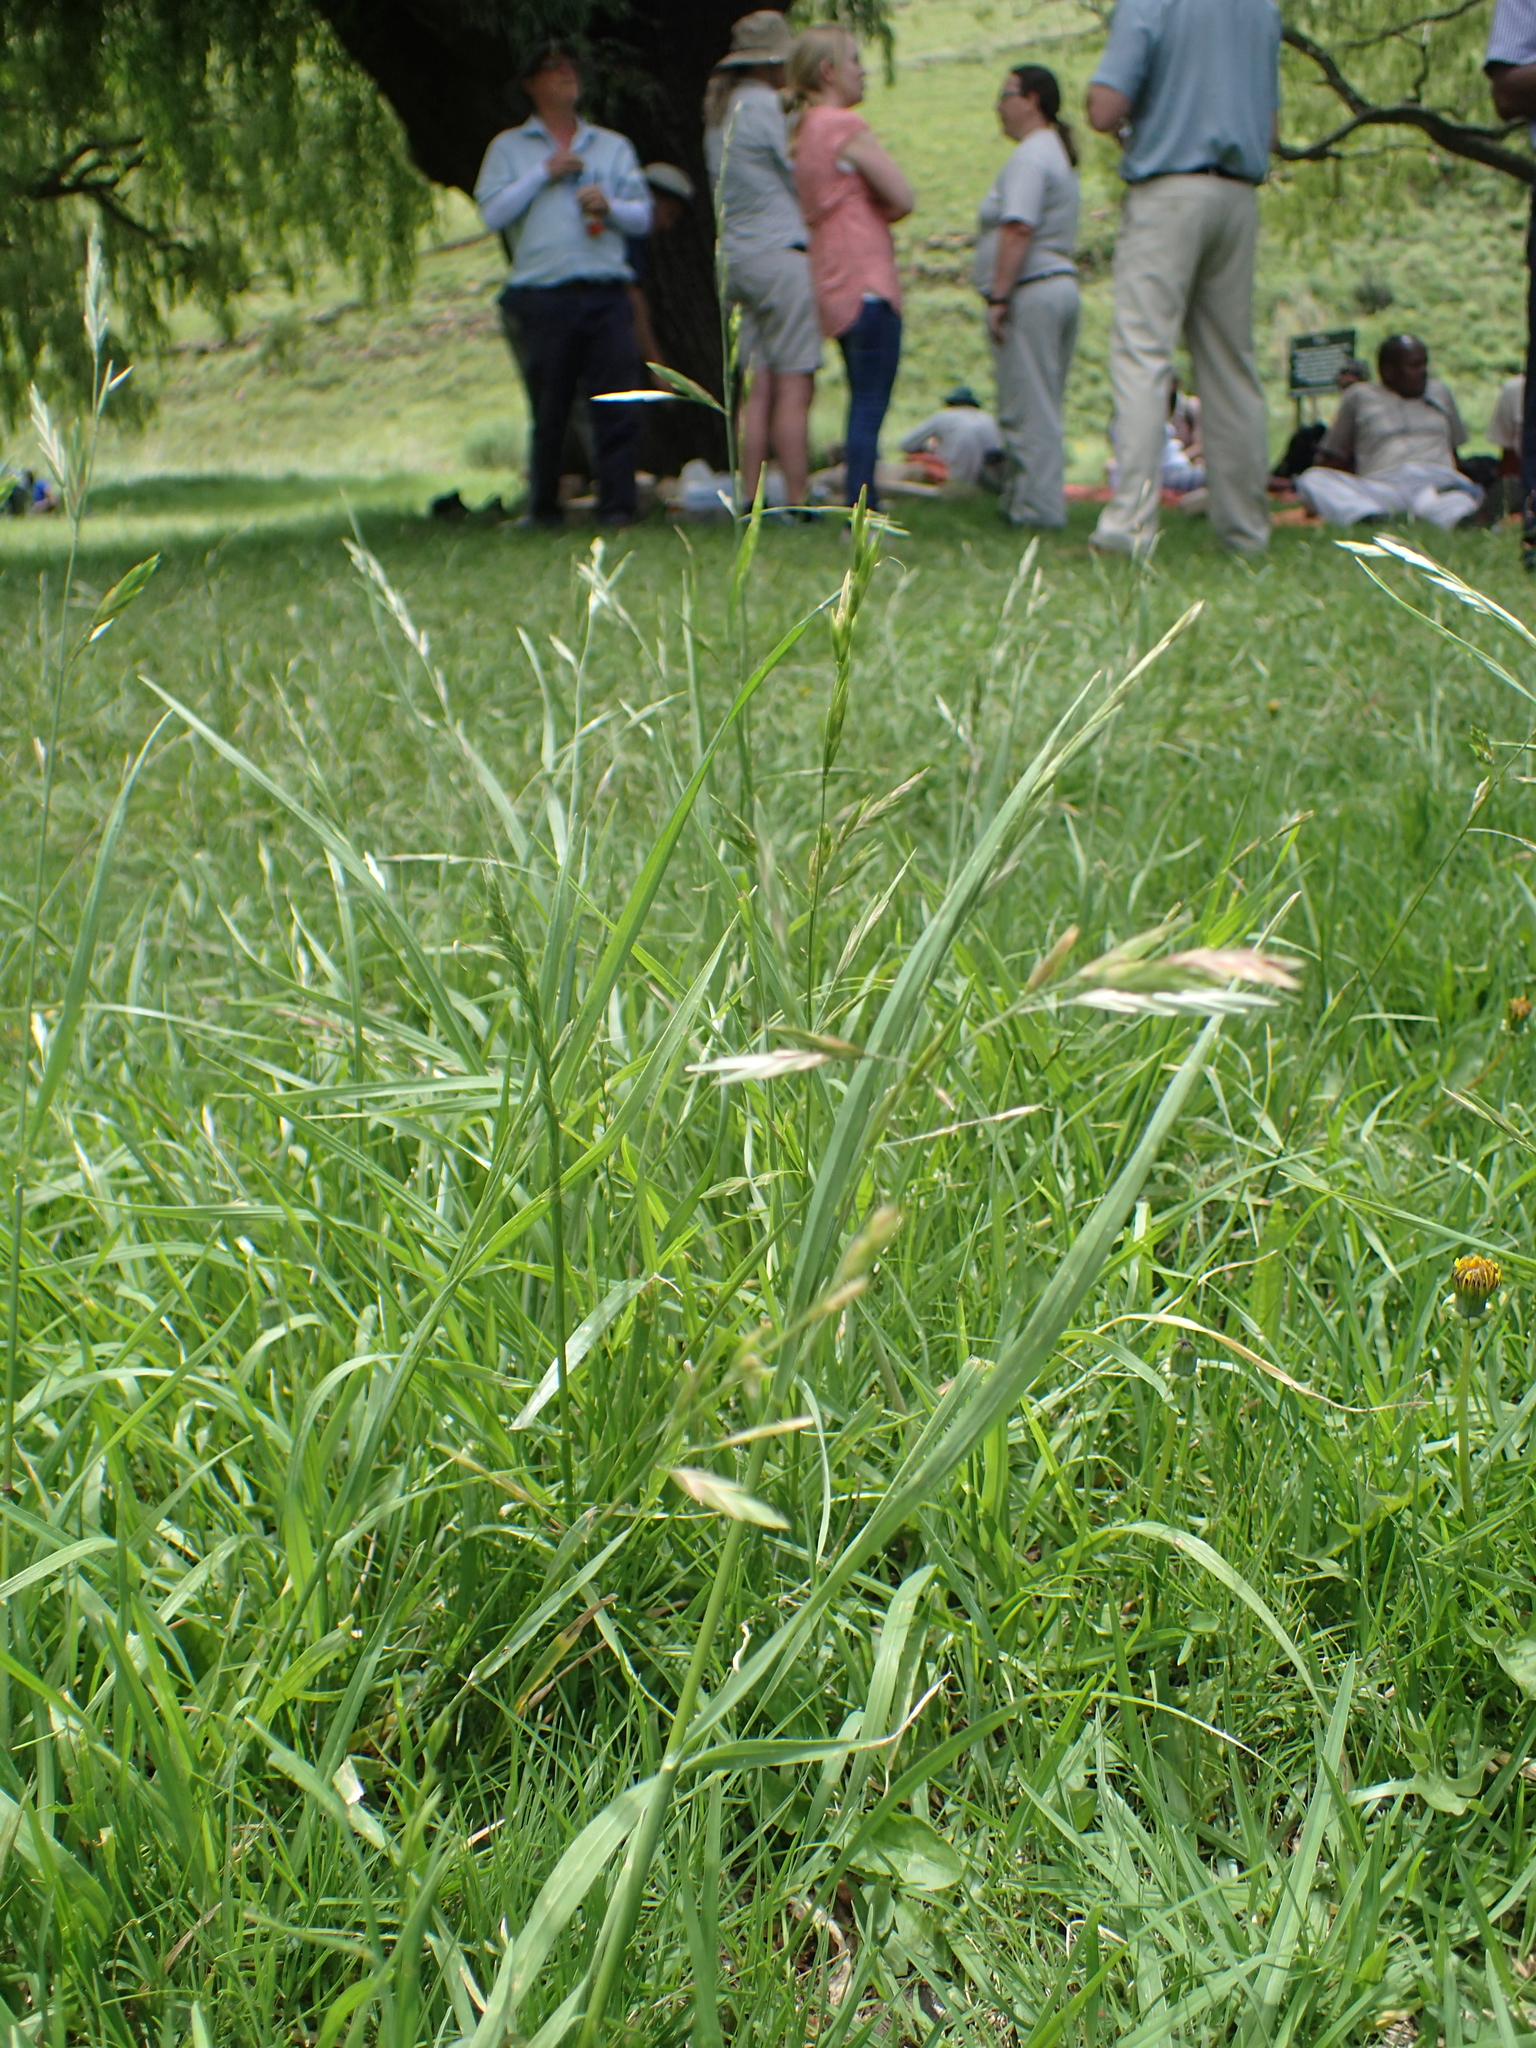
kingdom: Plantae
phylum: Tracheophyta
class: Liliopsida
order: Poales
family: Poaceae
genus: Bromus
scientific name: Bromus catharticus
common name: Rescuegrass
